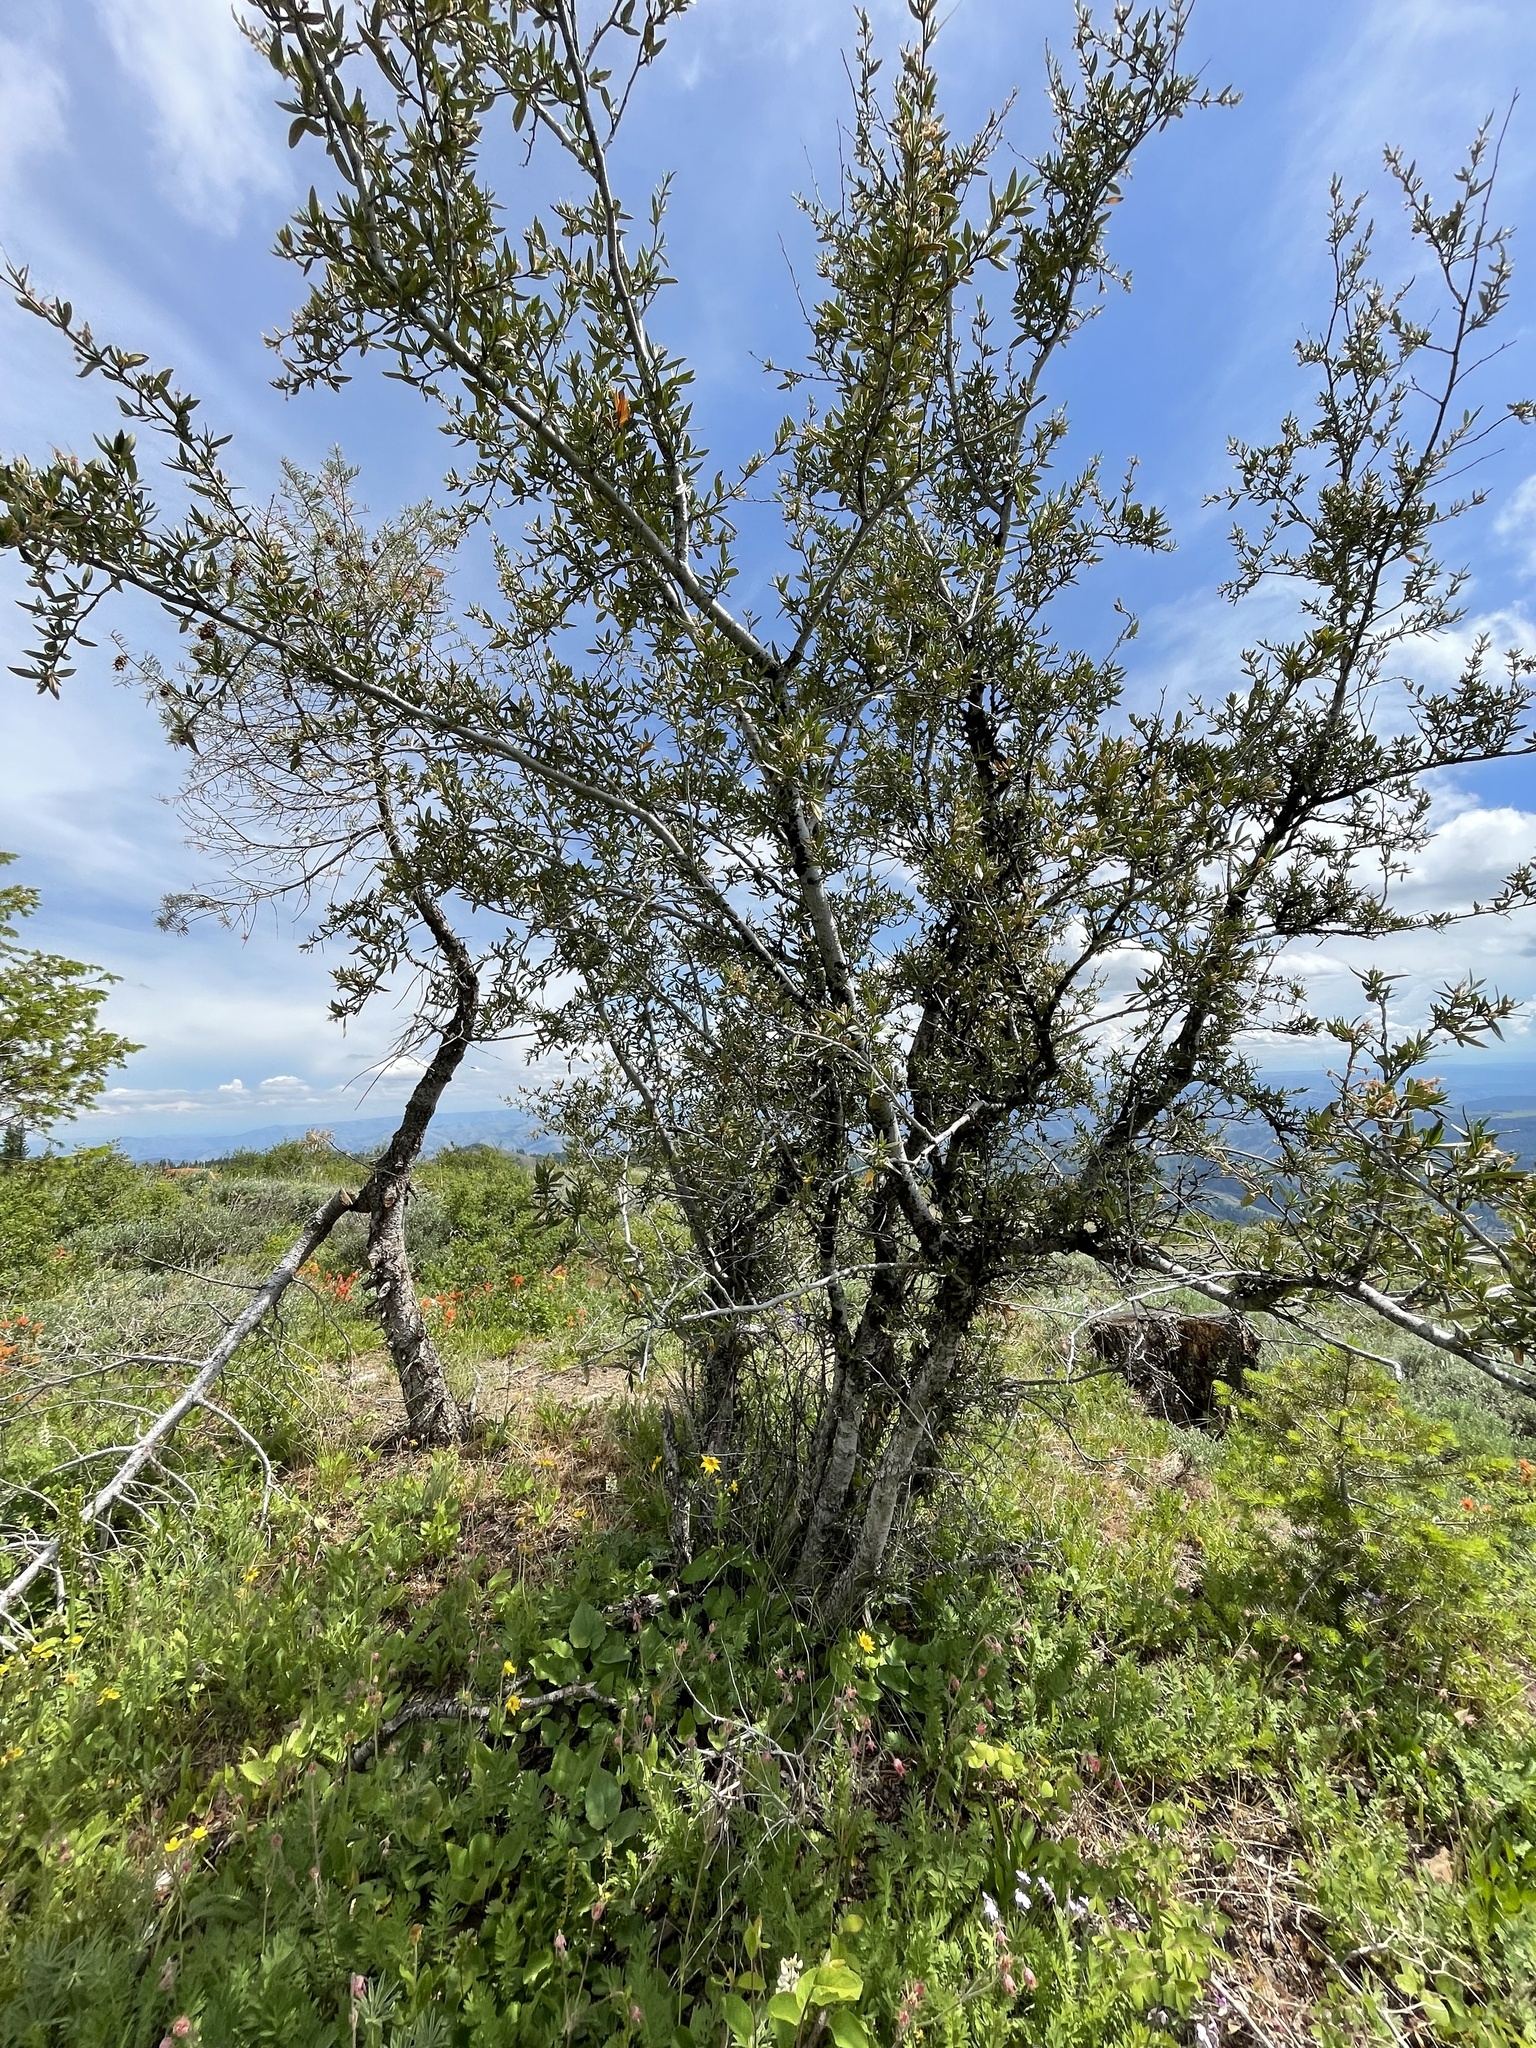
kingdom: Plantae
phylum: Tracheophyta
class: Magnoliopsida
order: Rosales
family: Rosaceae
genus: Cercocarpus
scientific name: Cercocarpus ledifolius
